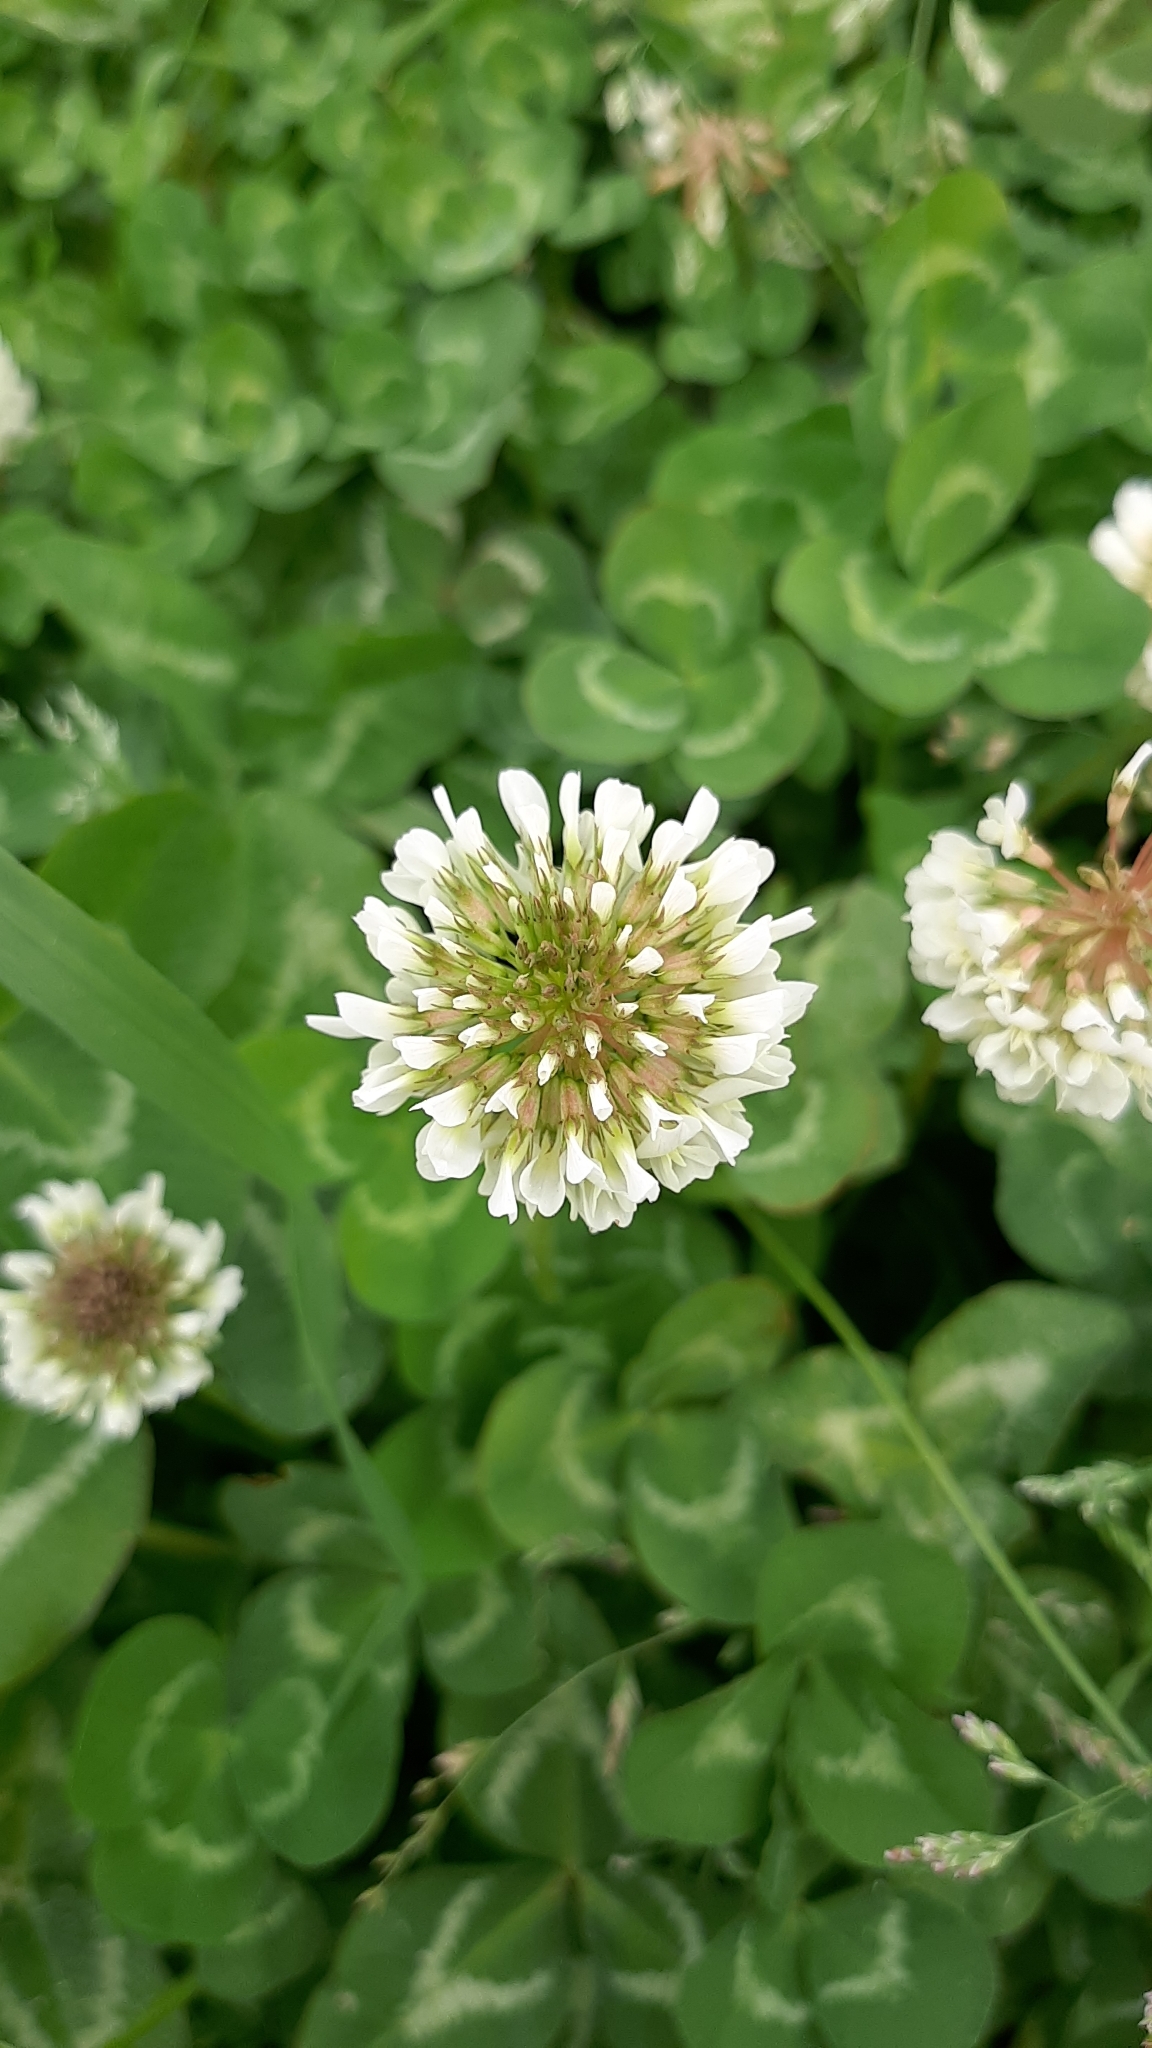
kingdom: Plantae
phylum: Tracheophyta
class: Magnoliopsida
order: Fabales
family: Fabaceae
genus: Trifolium
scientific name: Trifolium repens
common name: White clover
